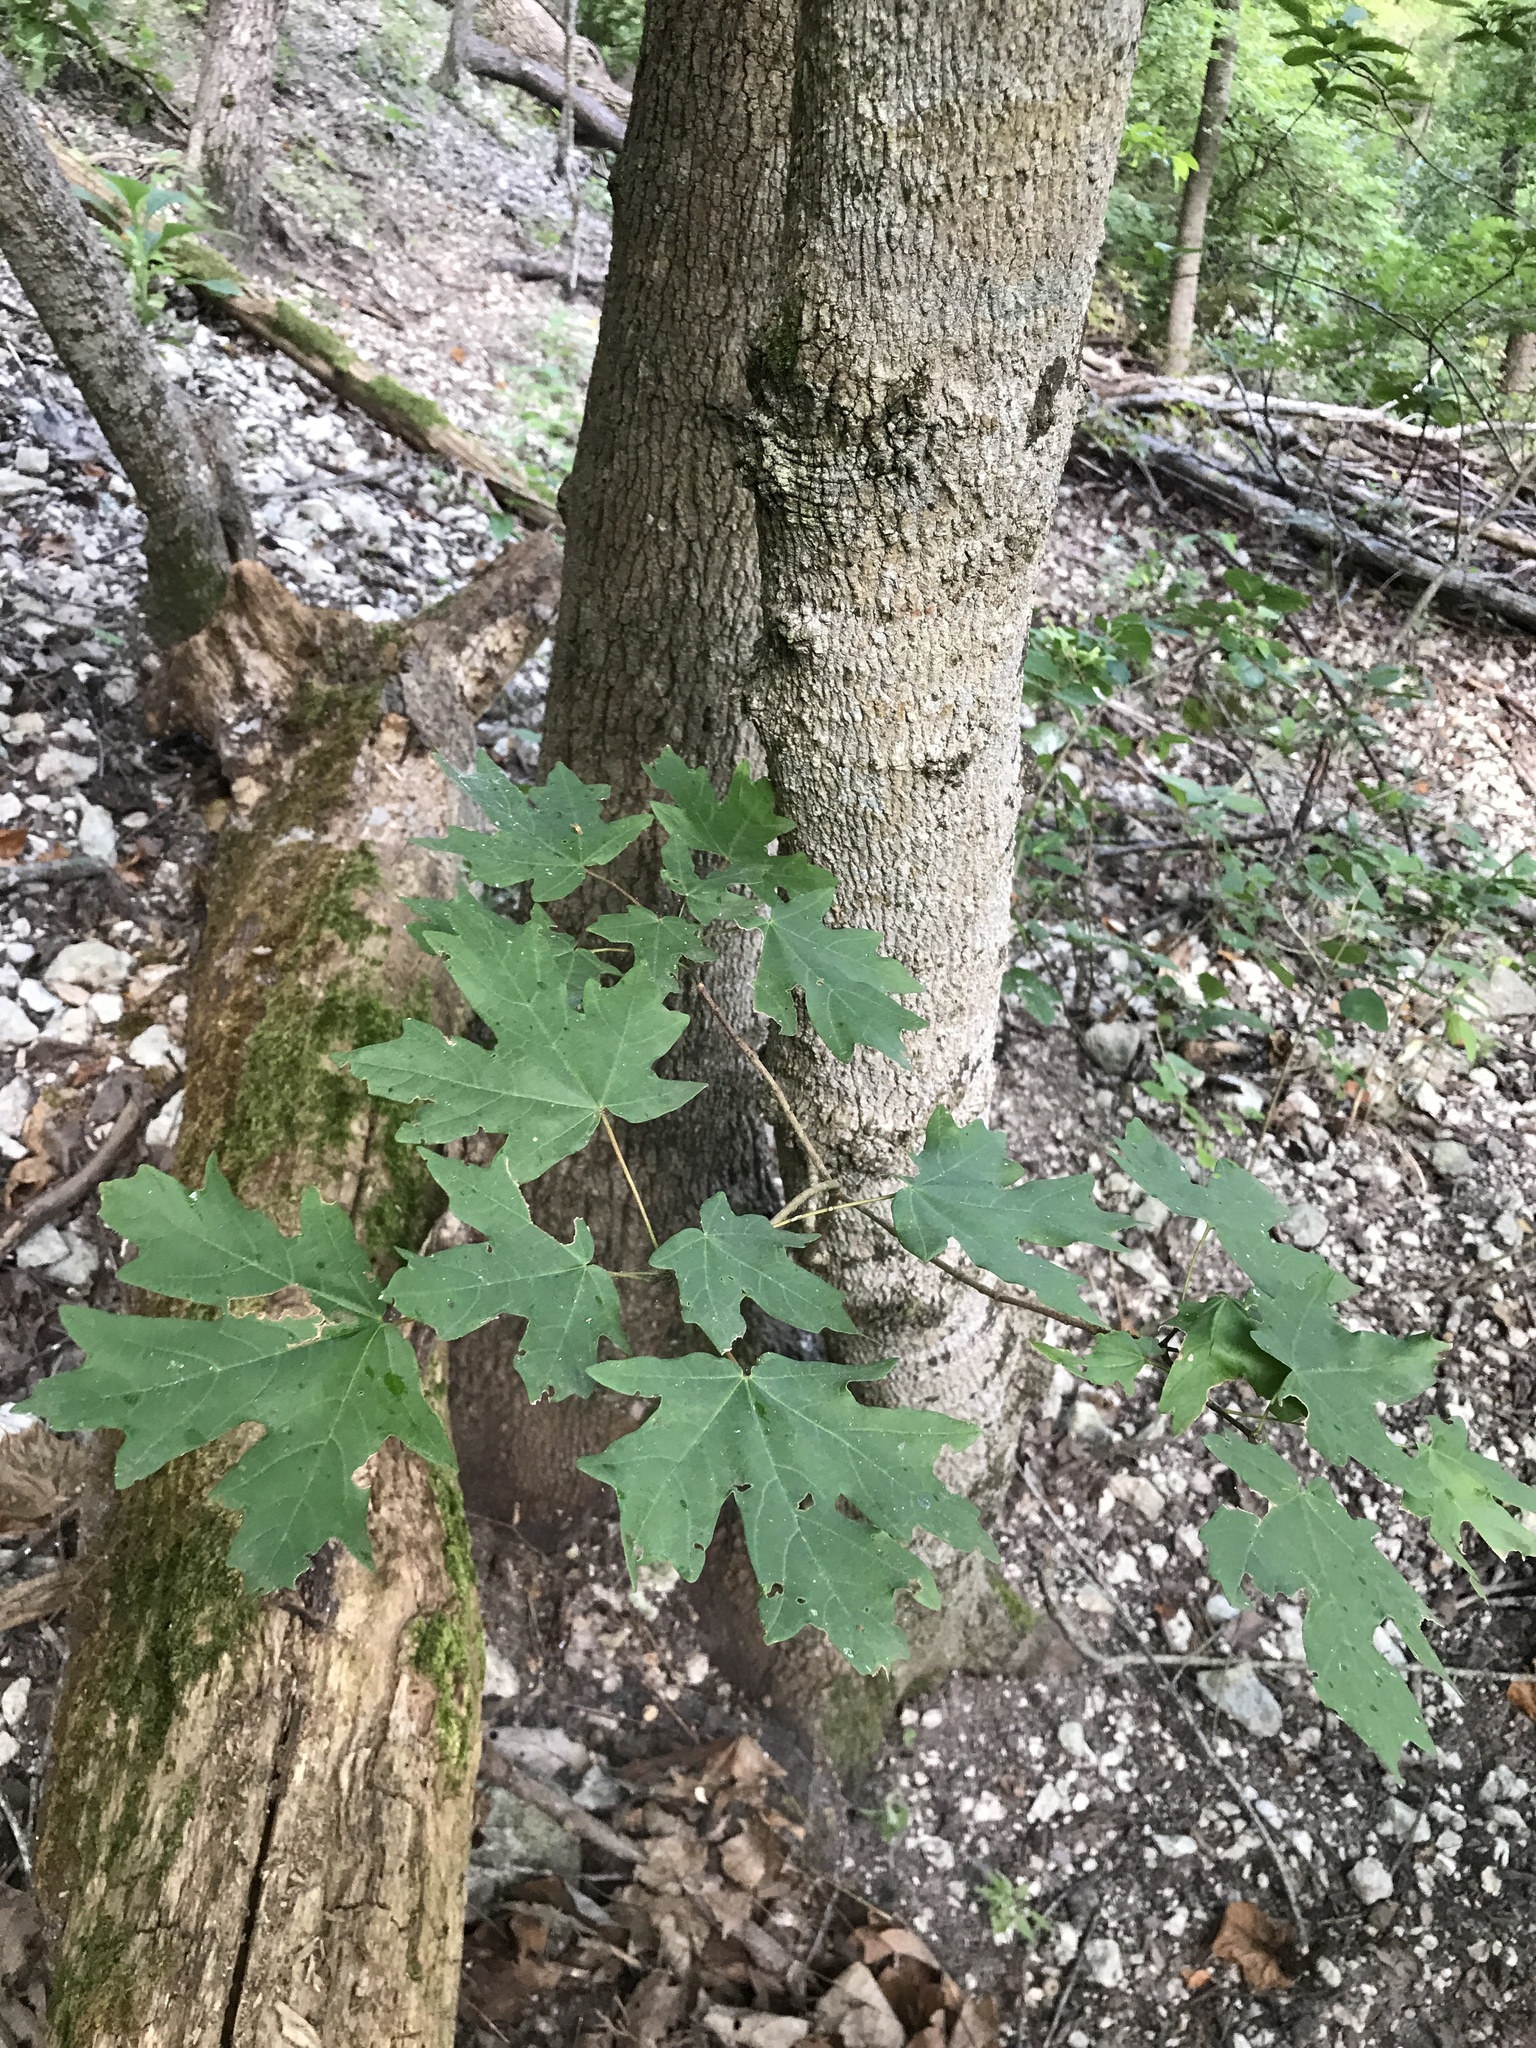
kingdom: Plantae
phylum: Tracheophyta
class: Magnoliopsida
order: Sapindales
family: Sapindaceae
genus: Acer
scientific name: Acer grandidentatum
